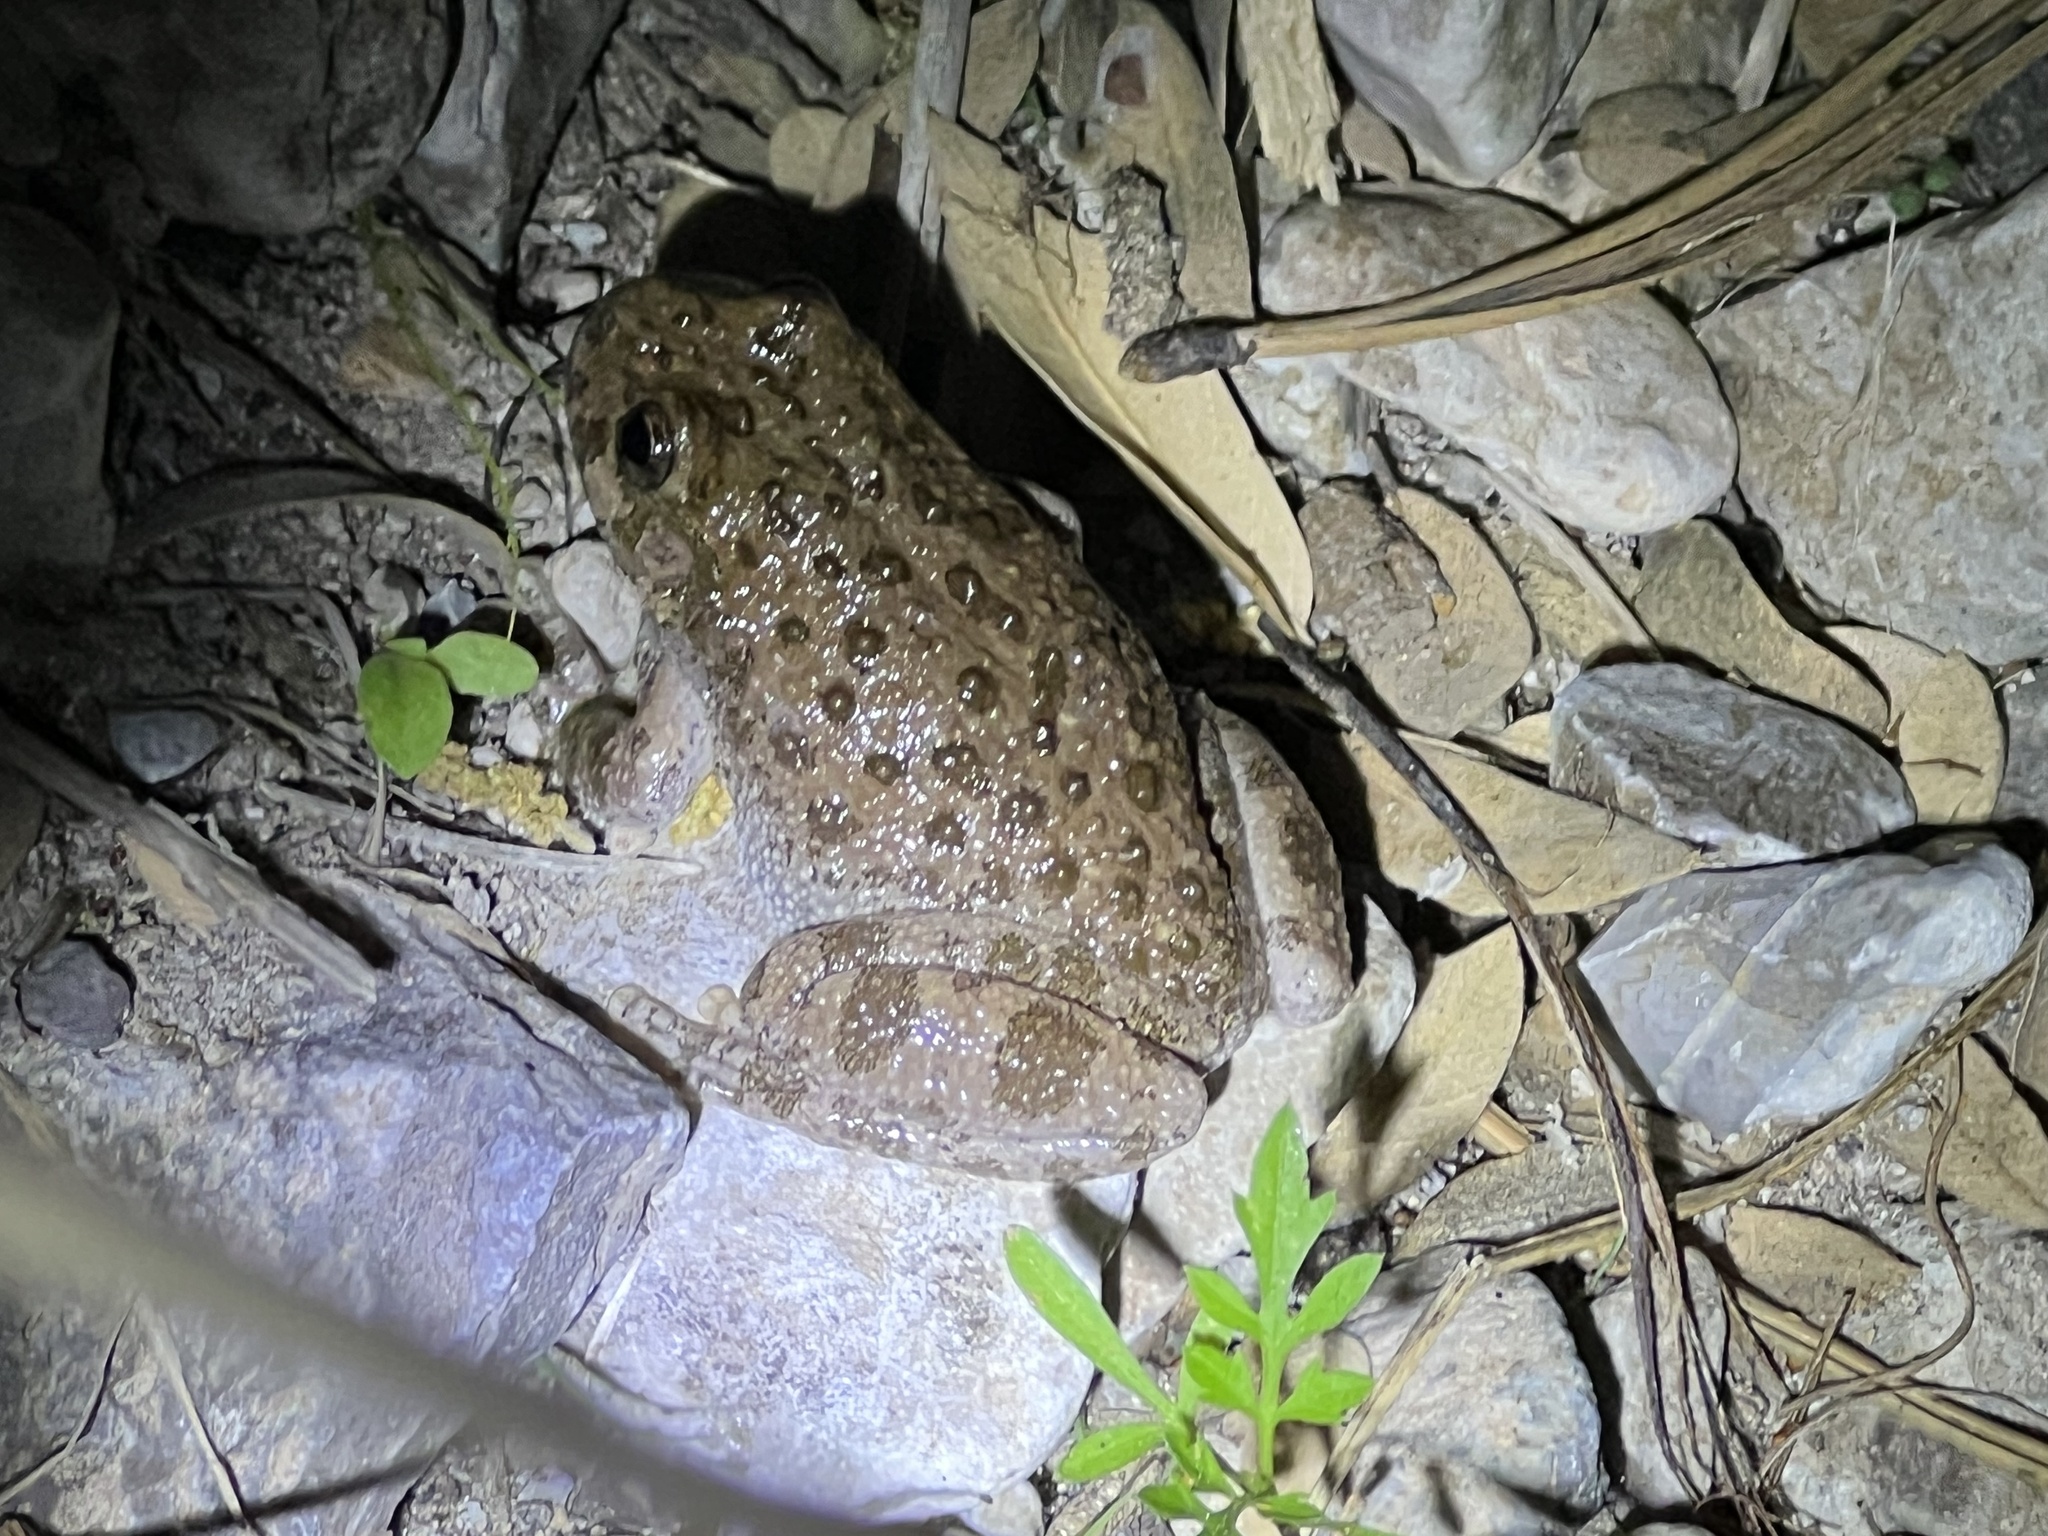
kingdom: Animalia
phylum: Chordata
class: Amphibia
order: Anura
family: Hylidae
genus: Dryophytes
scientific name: Dryophytes arenicolor
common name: Canyon treefrog
